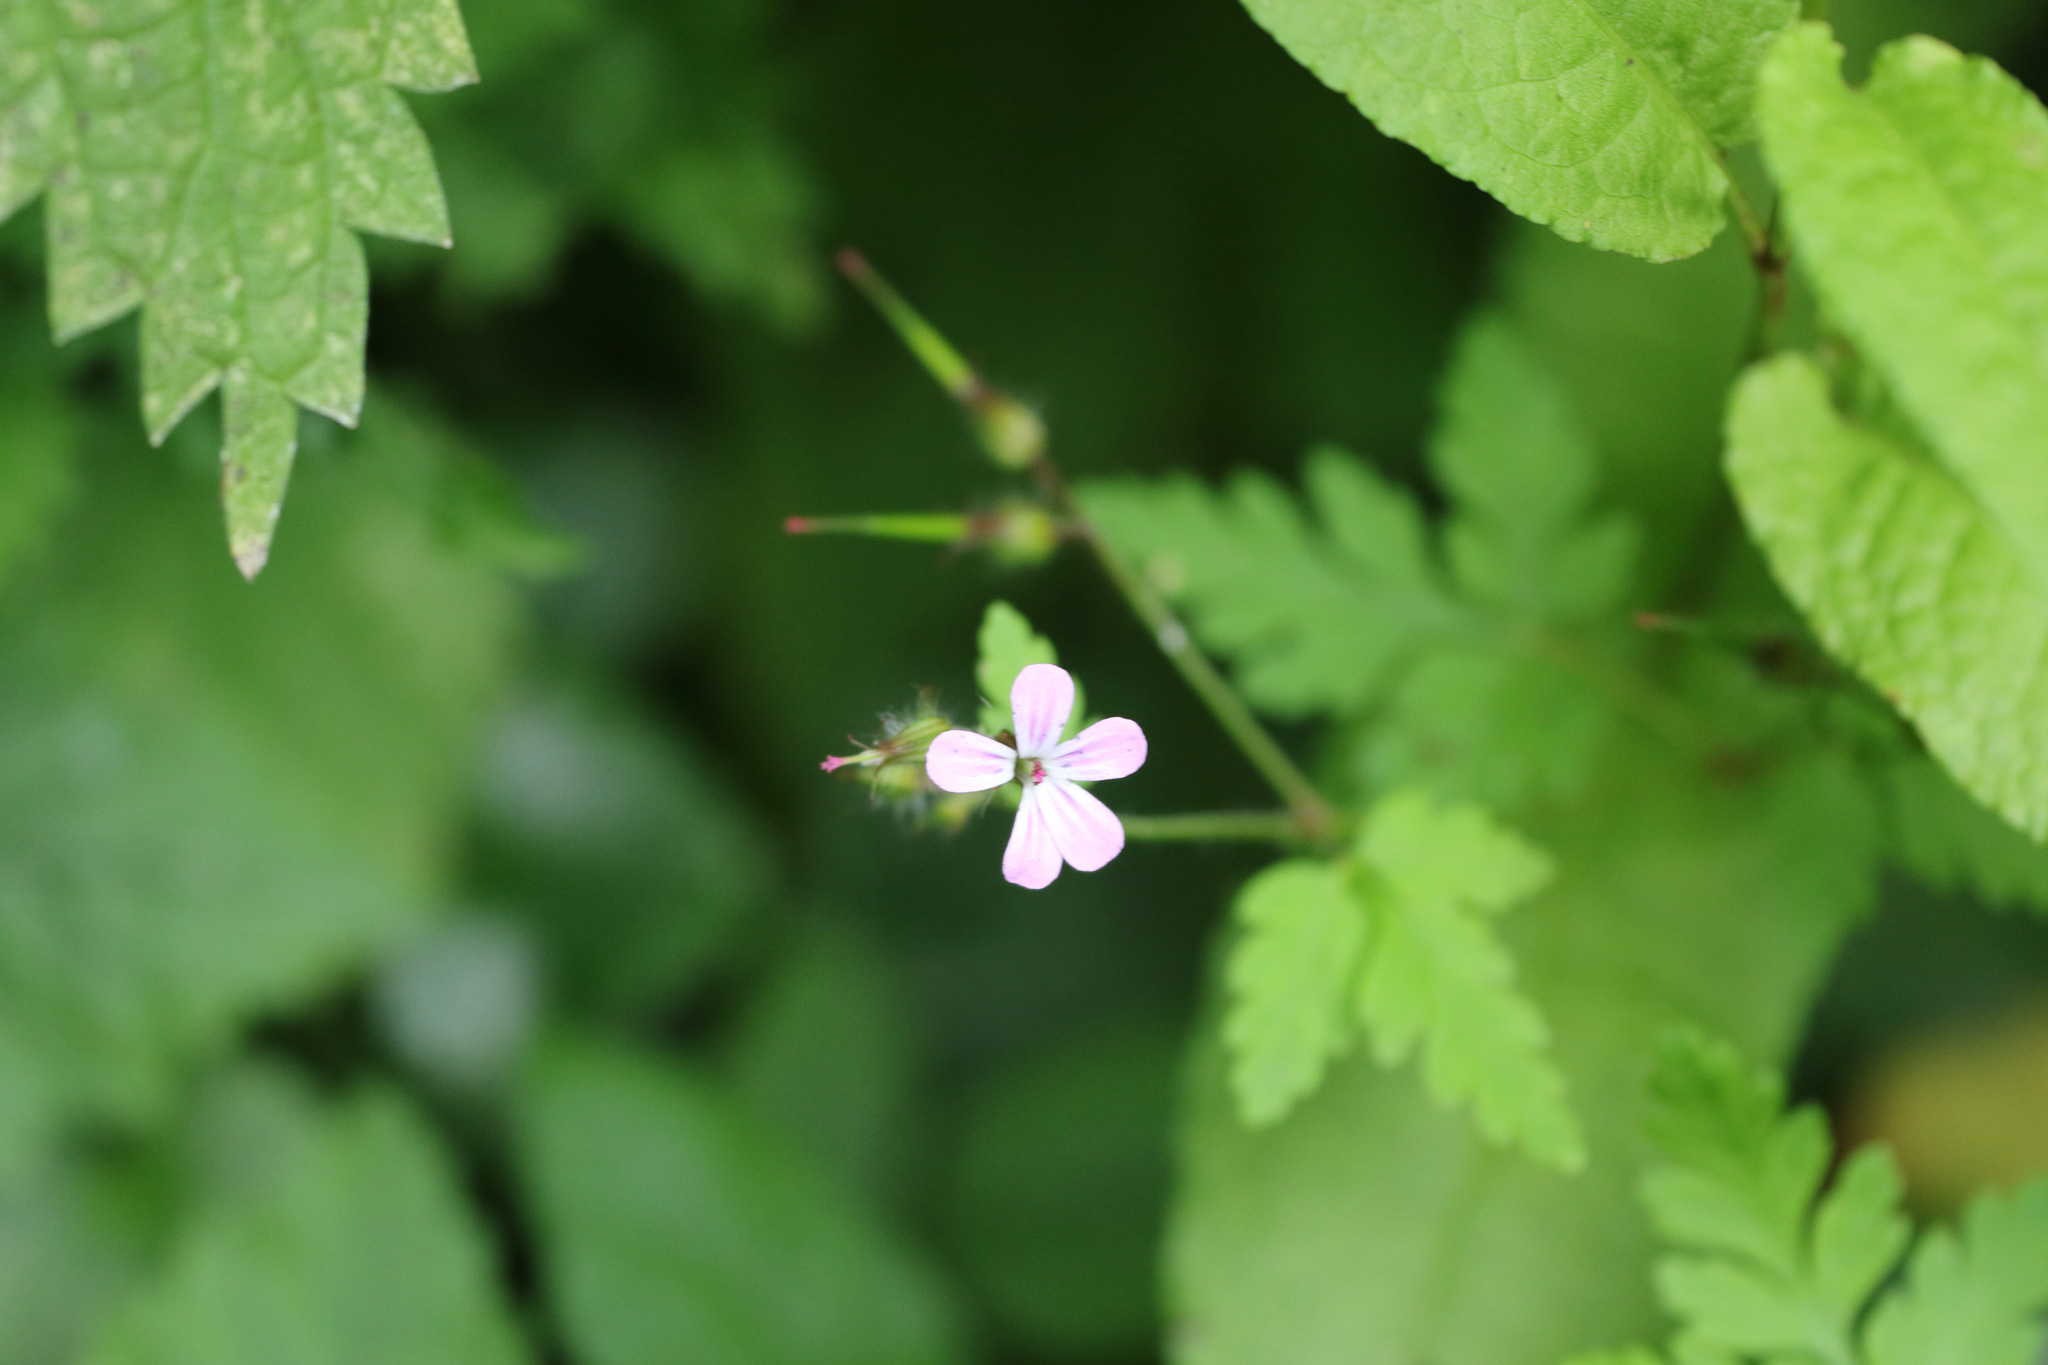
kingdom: Plantae
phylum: Tracheophyta
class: Magnoliopsida
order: Geraniales
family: Geraniaceae
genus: Geranium
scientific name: Geranium robertianum
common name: Herb-robert
